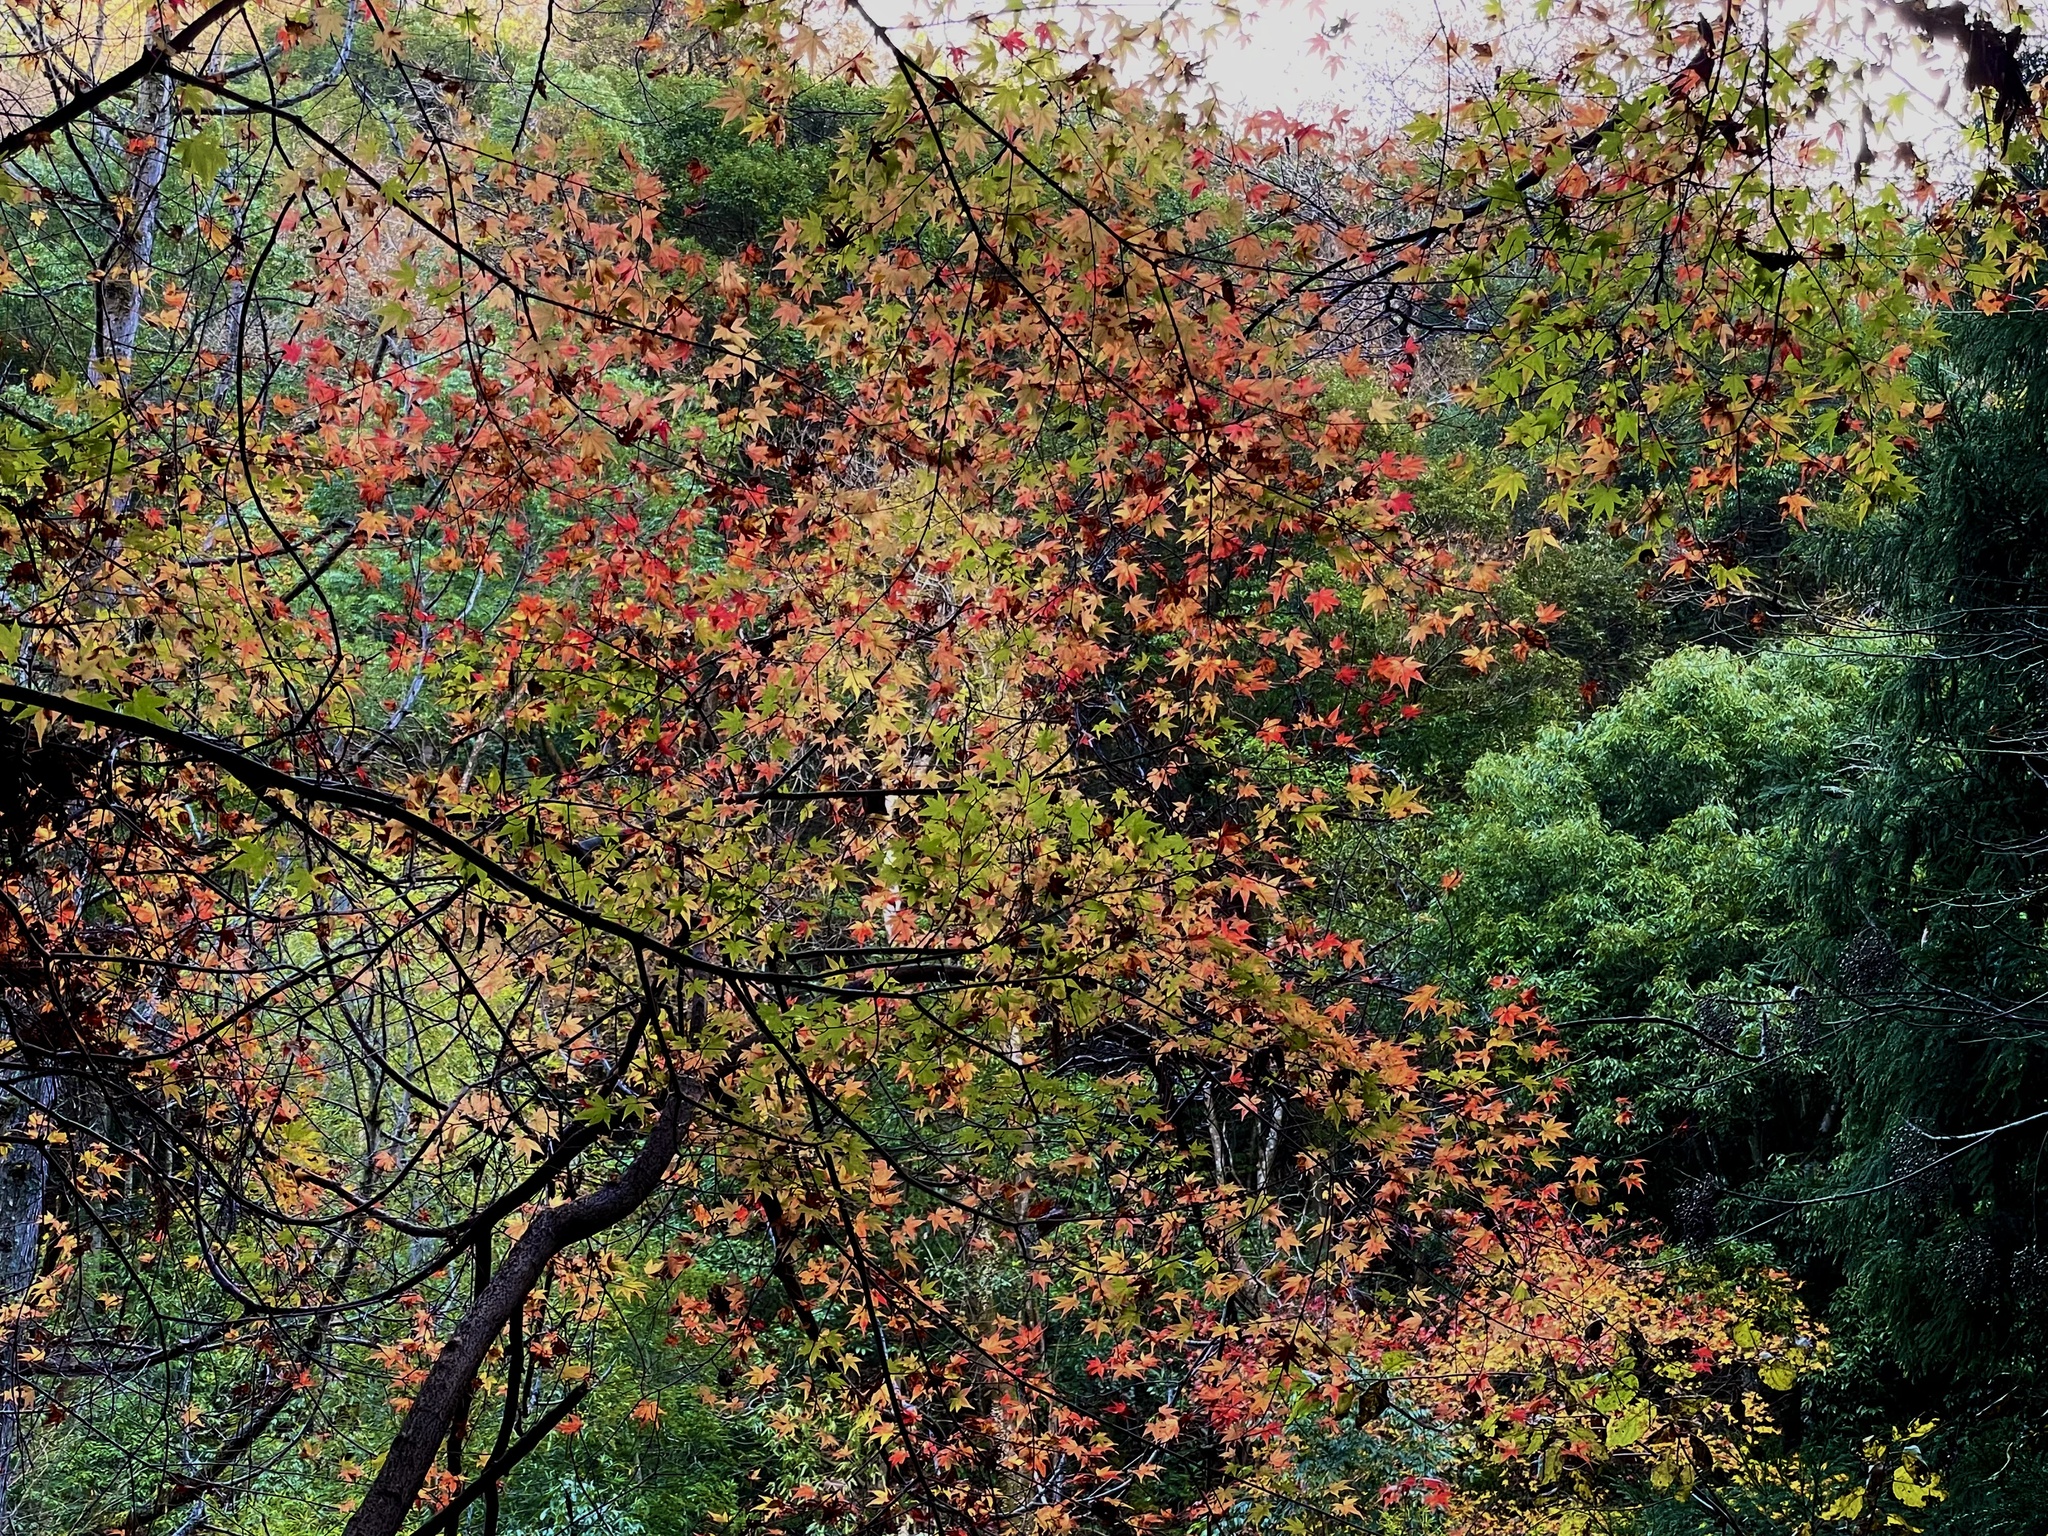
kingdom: Plantae
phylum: Tracheophyta
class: Magnoliopsida
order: Sapindales
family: Sapindaceae
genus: Acer
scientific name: Acer palmatum
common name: Japanese maple
